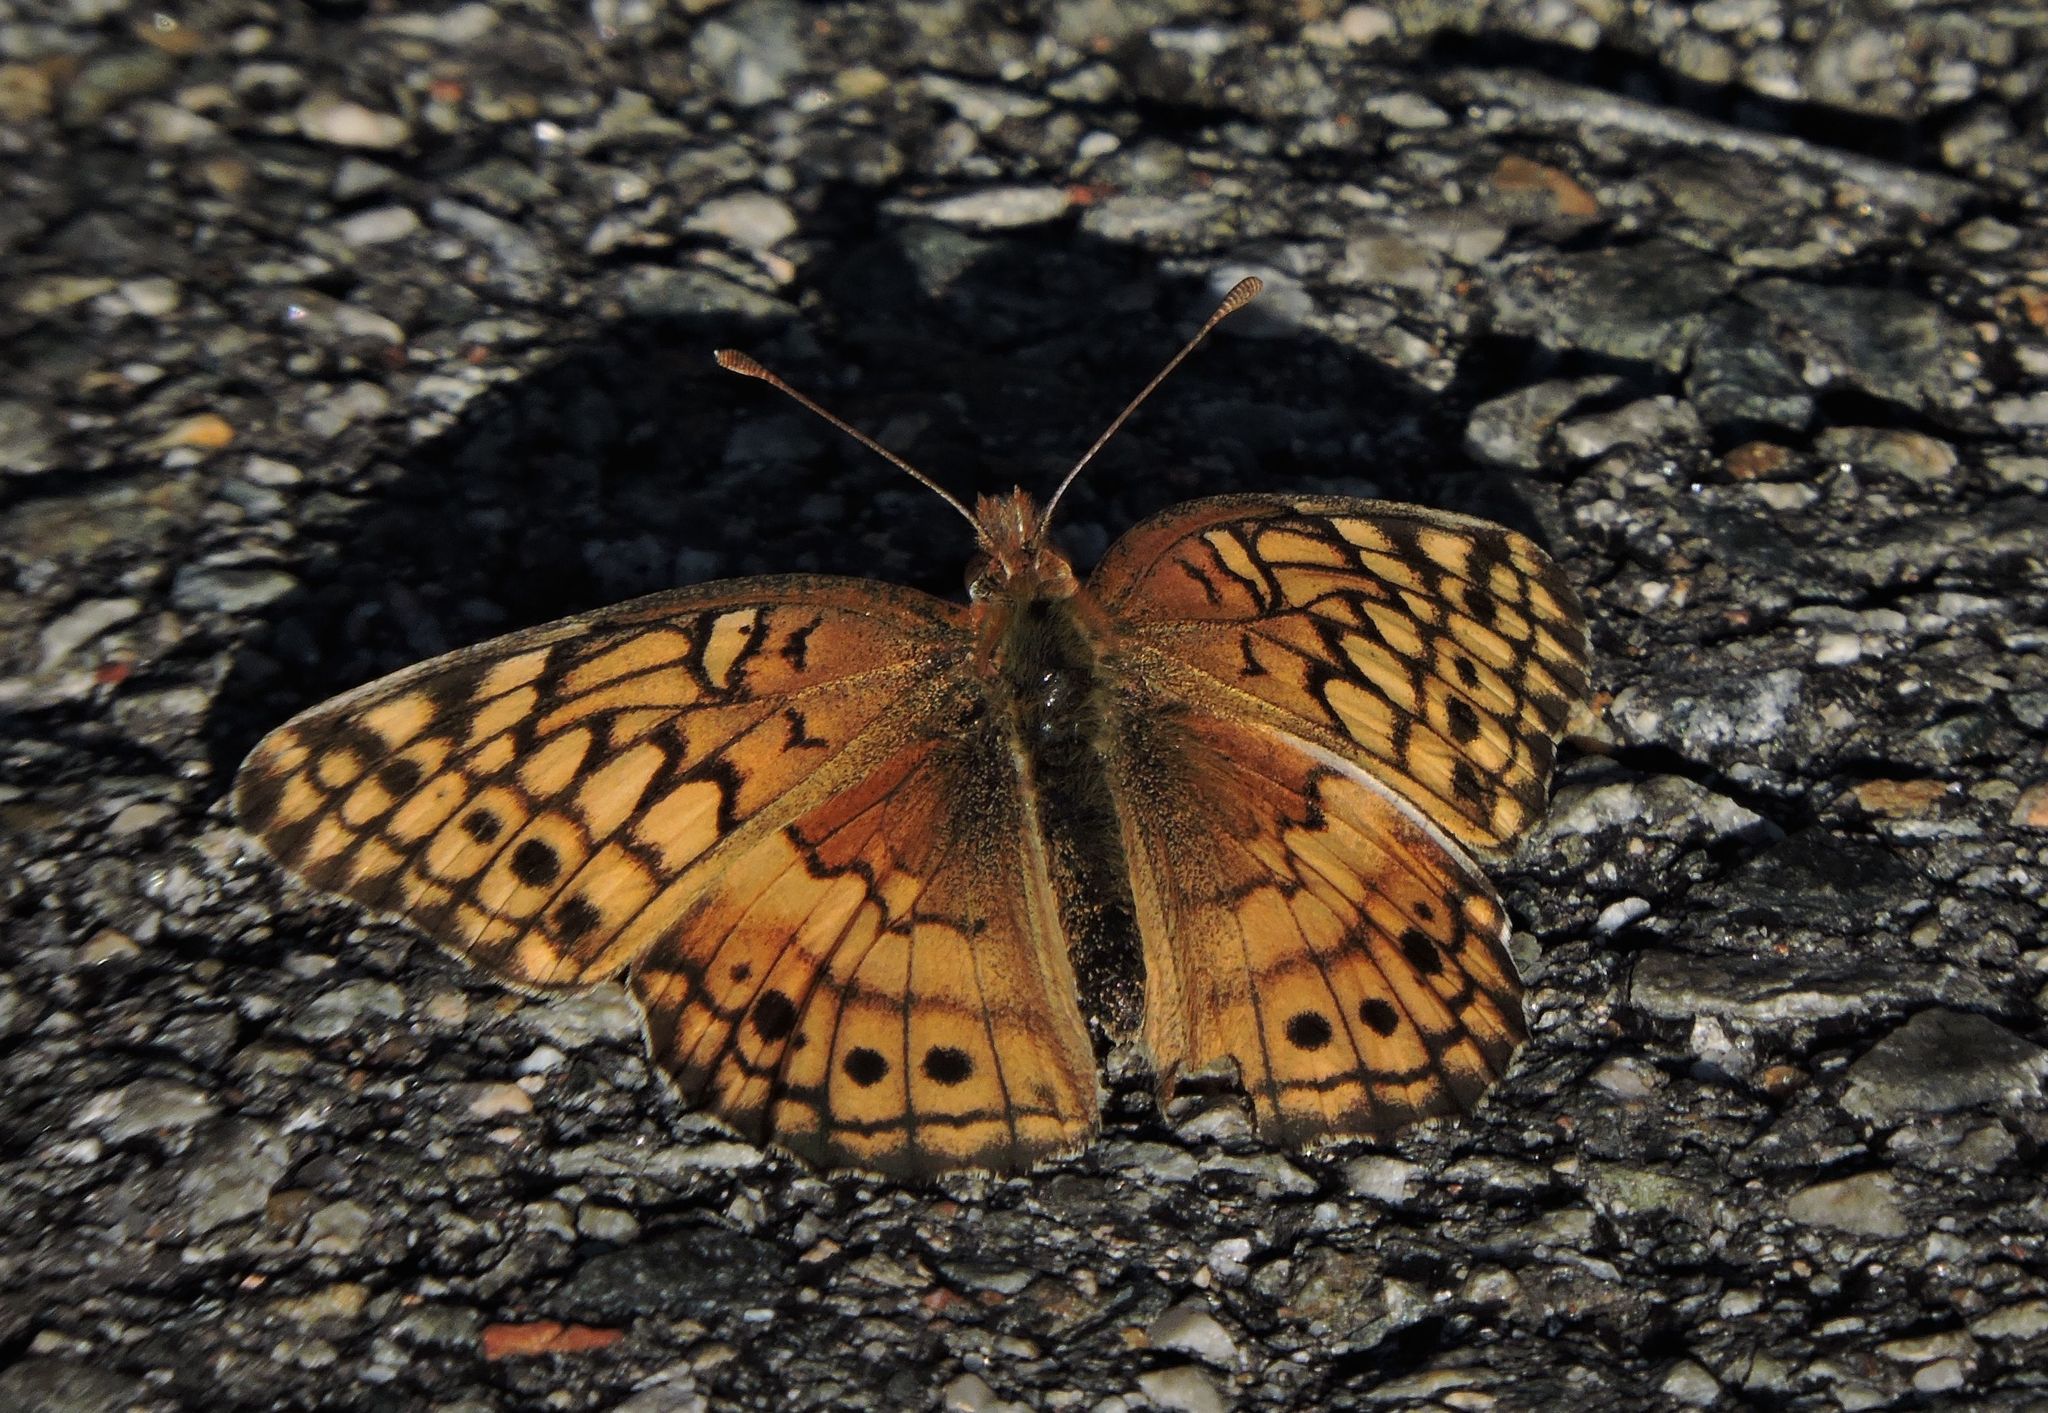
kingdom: Animalia
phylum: Arthropoda
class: Insecta
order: Lepidoptera
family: Nymphalidae
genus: Euptoieta
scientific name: Euptoieta claudia
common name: Variegated fritillary
